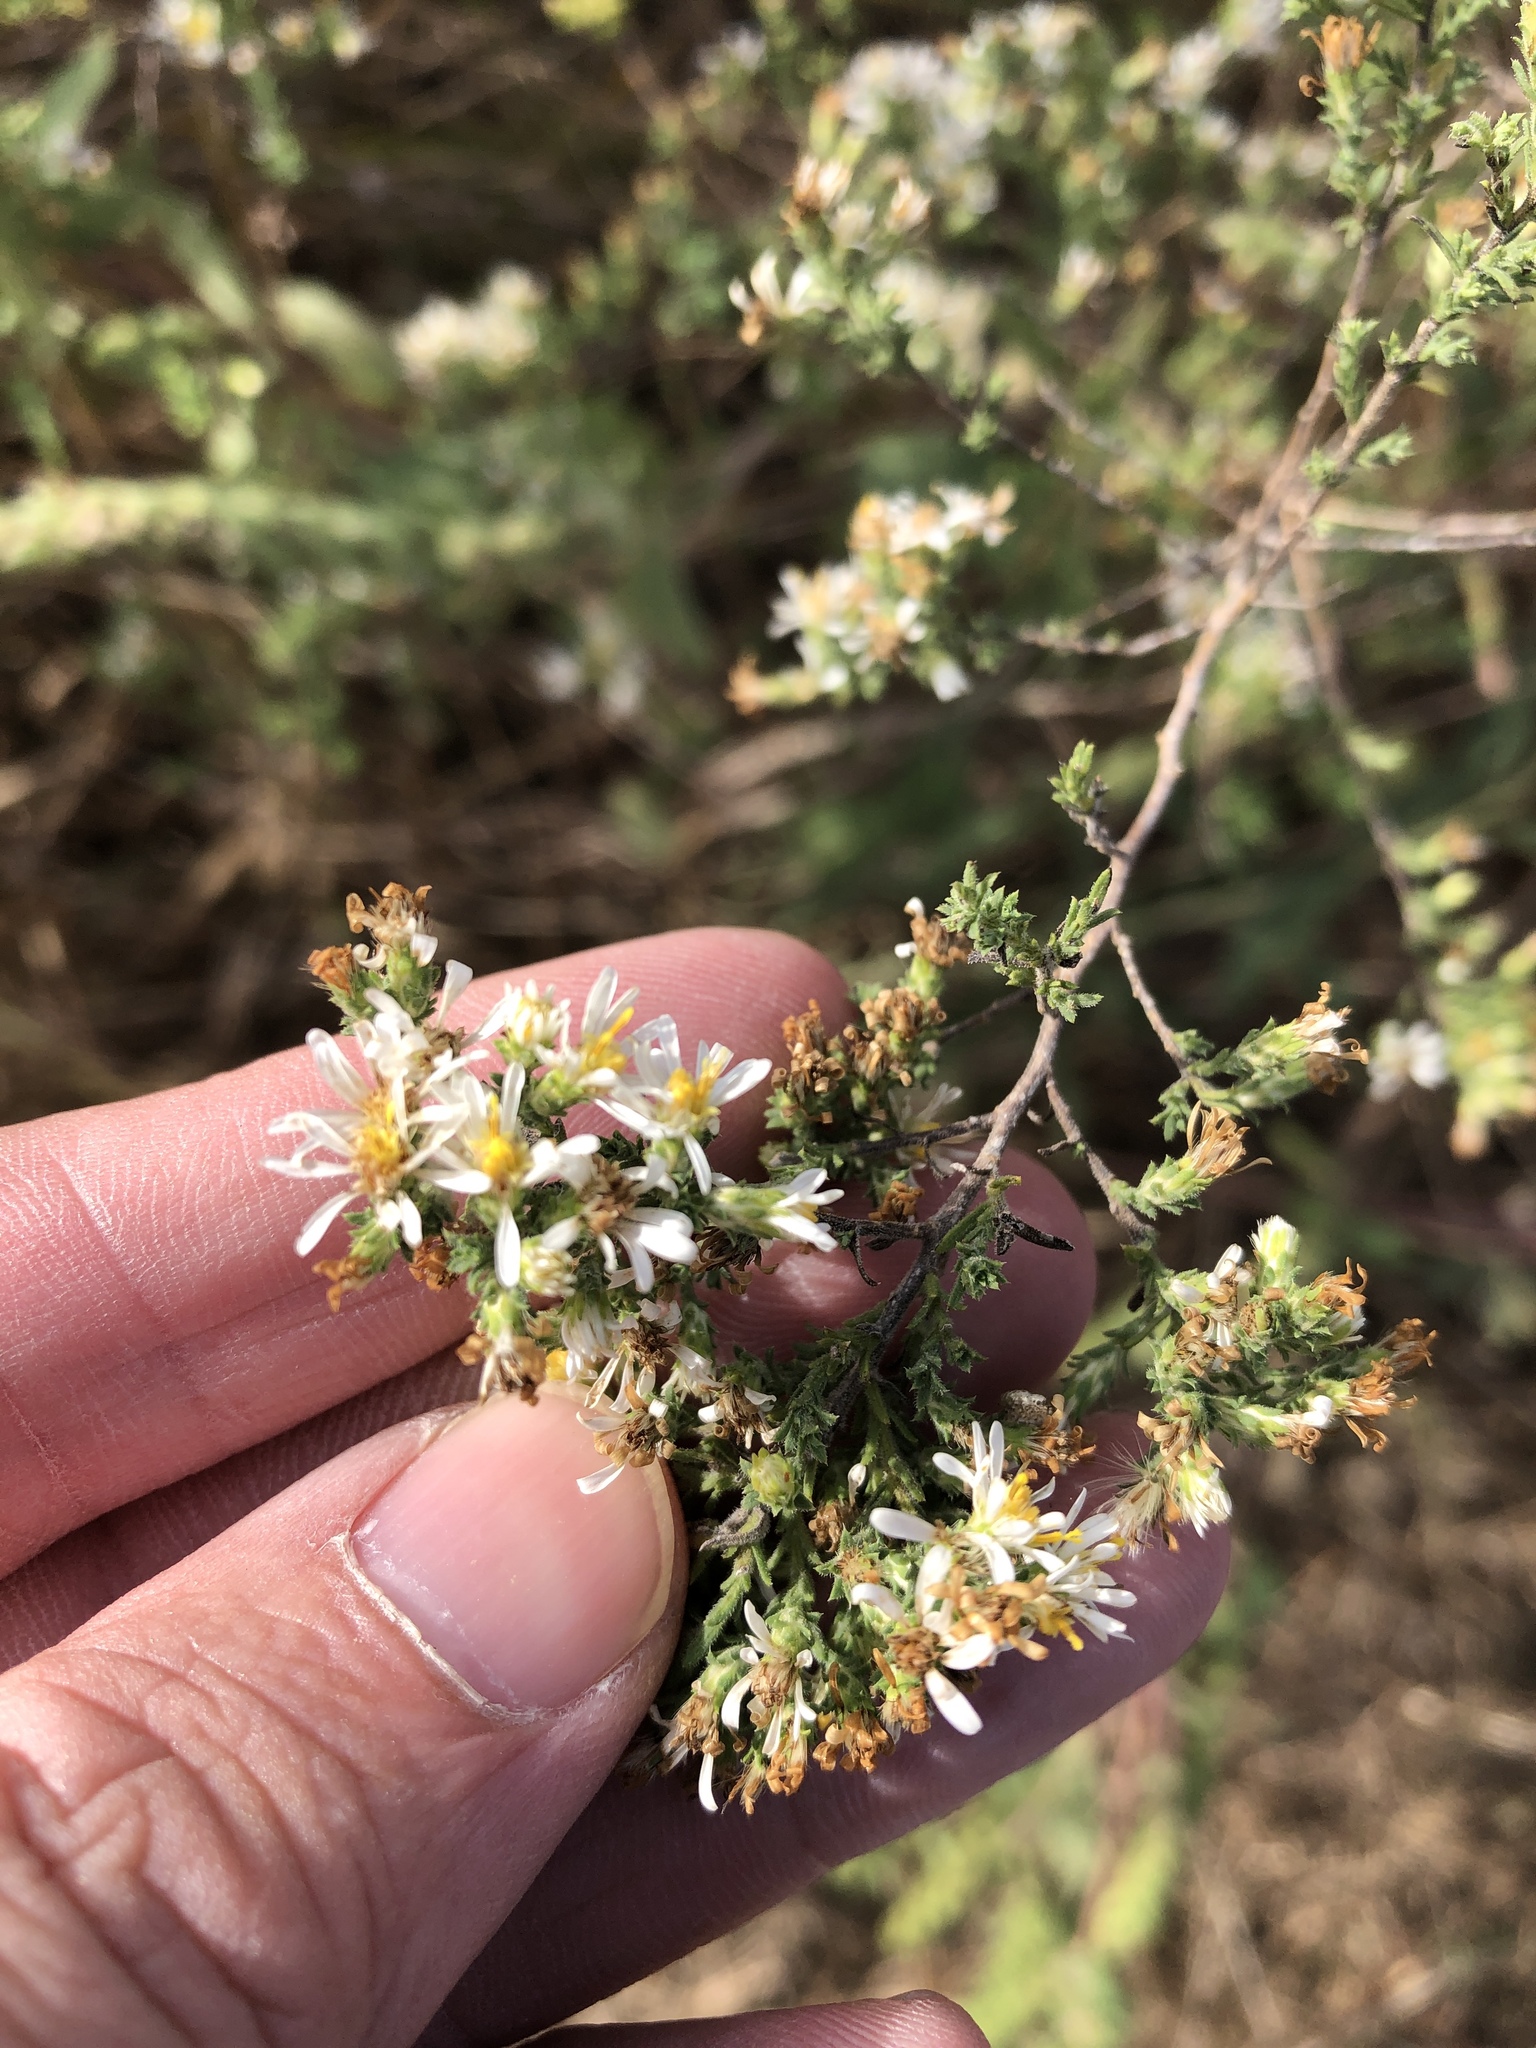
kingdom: Plantae
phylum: Tracheophyta
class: Magnoliopsida
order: Asterales
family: Asteraceae
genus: Symphyotrichum
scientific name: Symphyotrichum ericoides
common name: Heath aster
